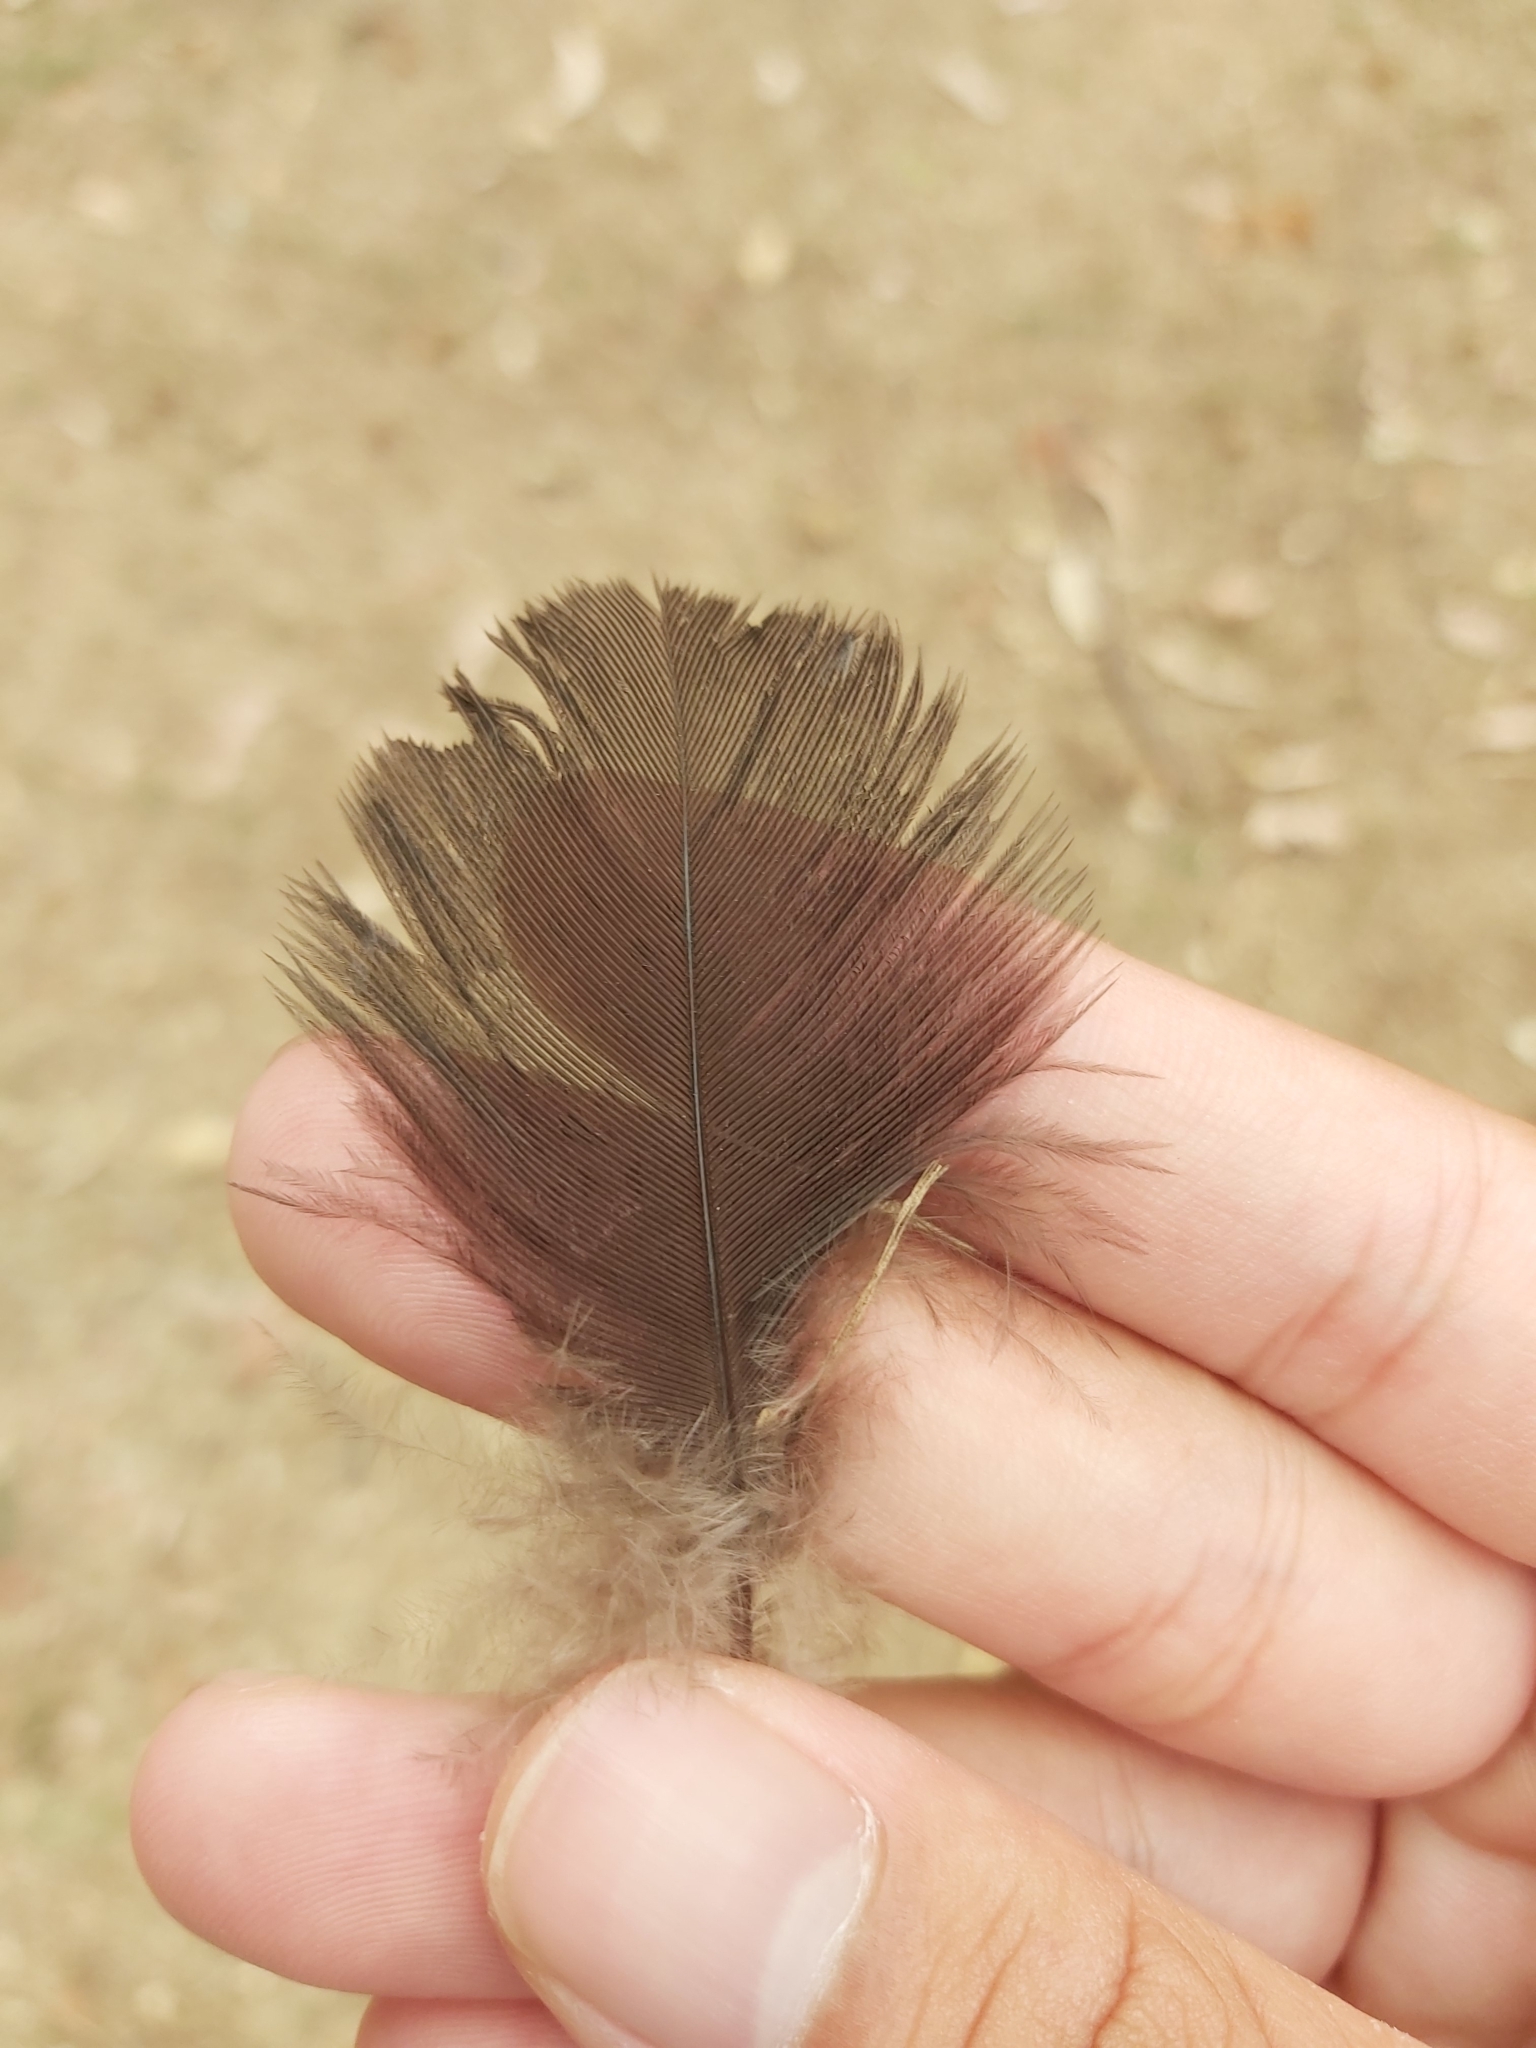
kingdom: Animalia
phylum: Chordata
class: Aves
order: Galliformes
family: Megapodiidae
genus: Alectura
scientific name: Alectura lathami
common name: Australian brushturkey
